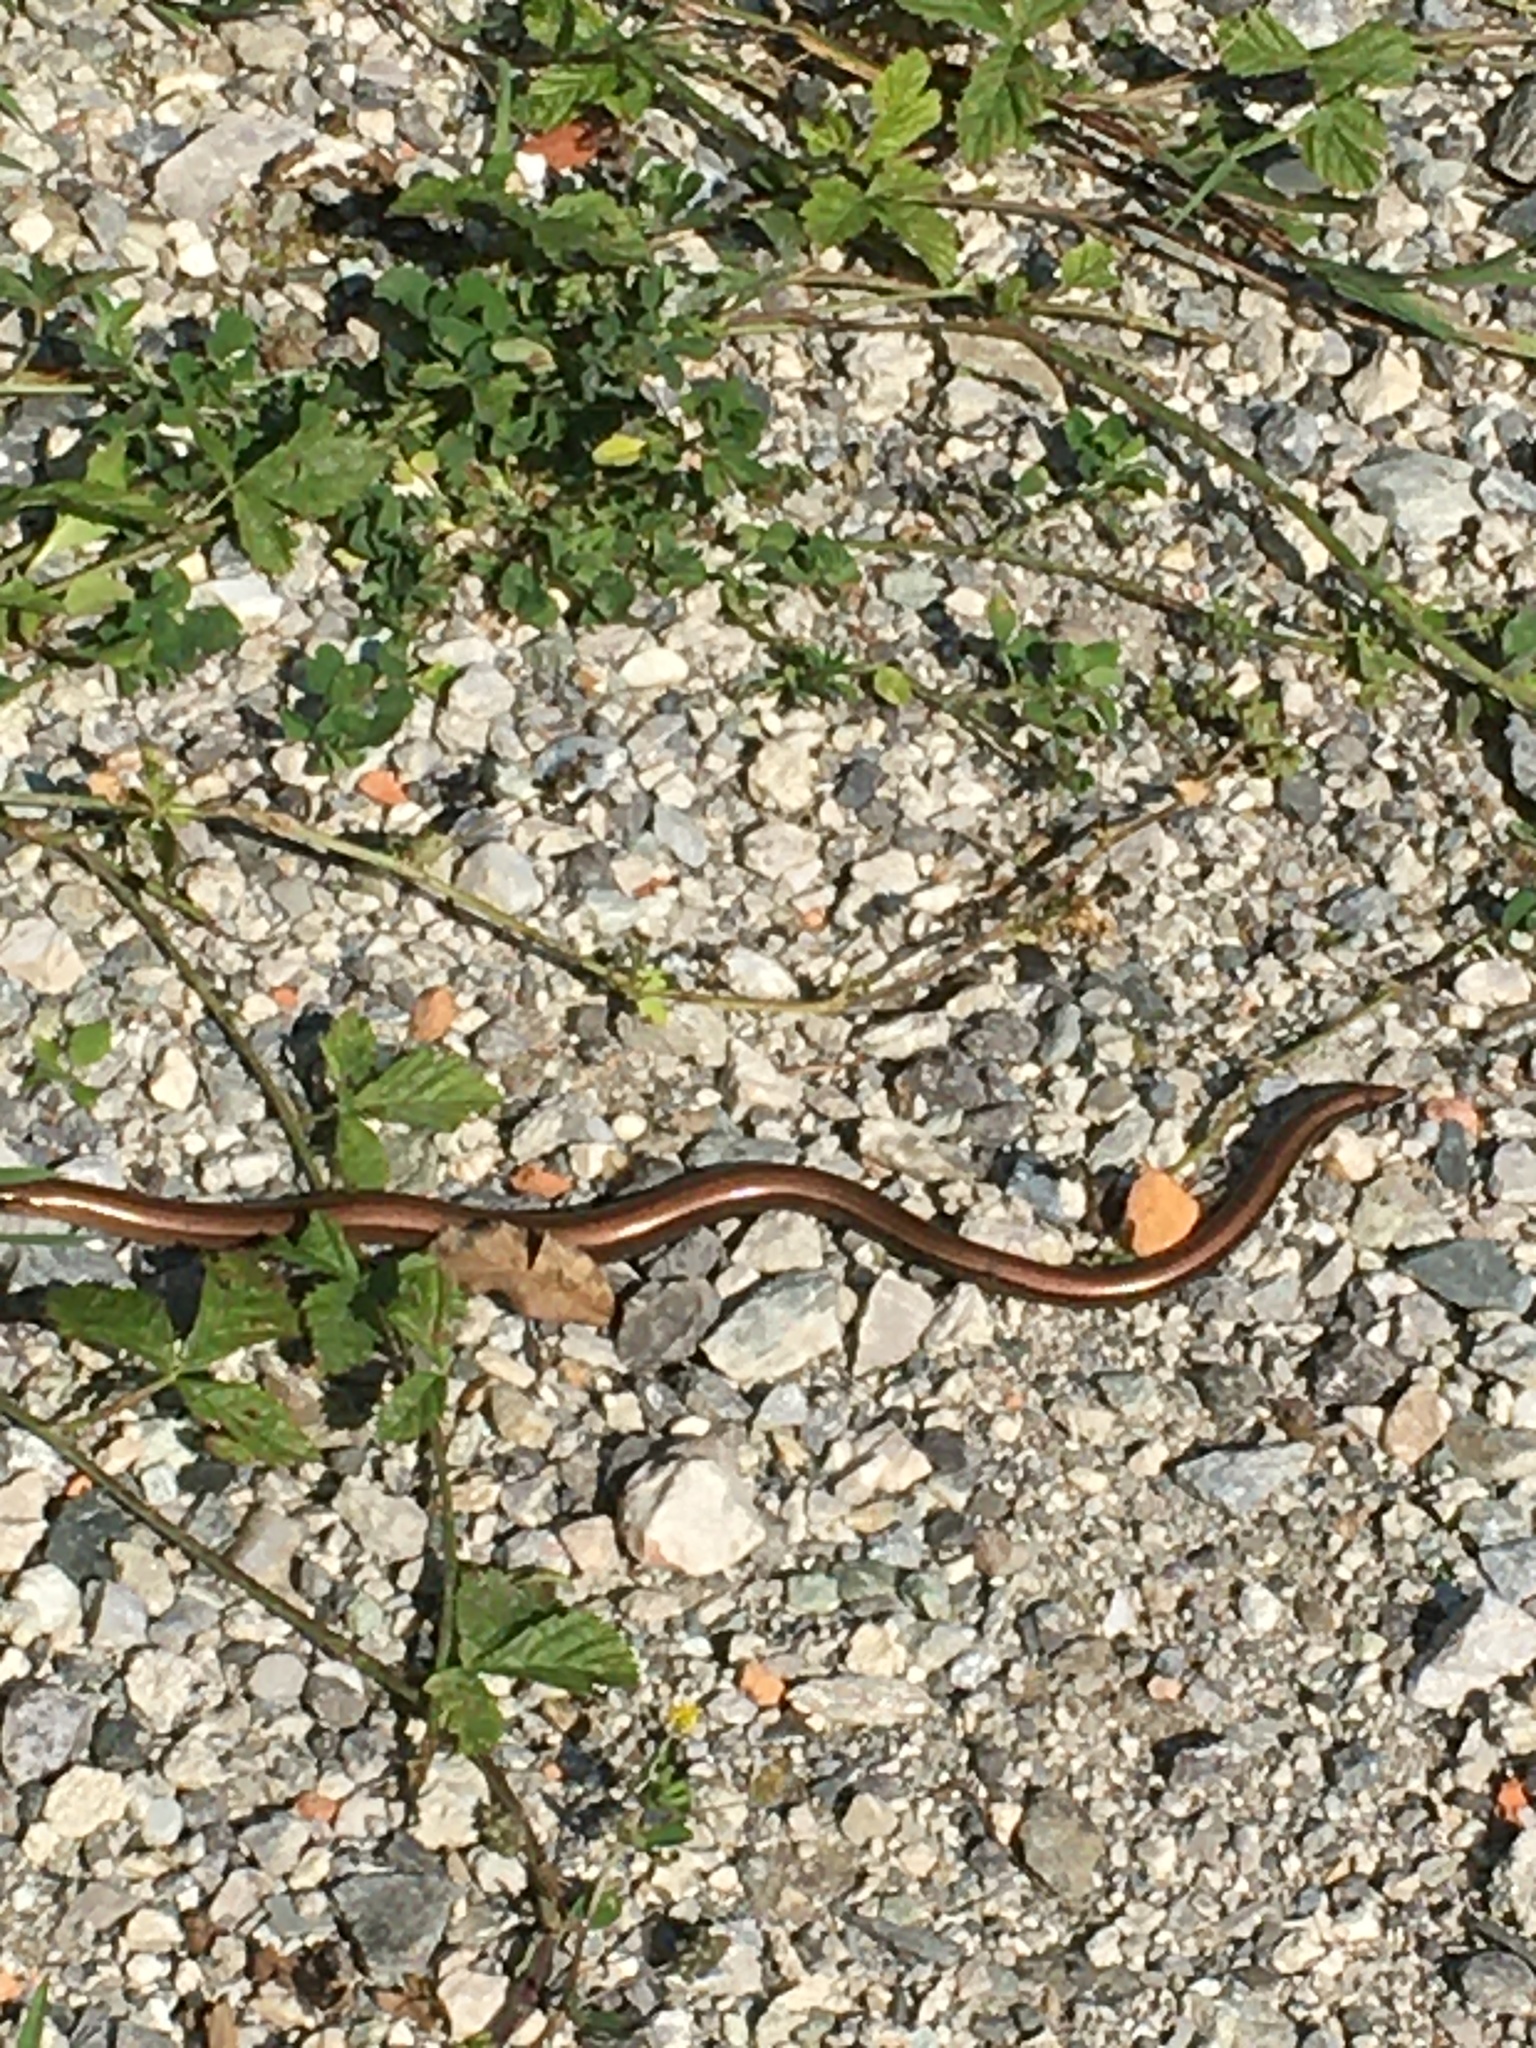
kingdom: Animalia
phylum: Chordata
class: Squamata
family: Anguidae
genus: Anguis
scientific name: Anguis fragilis
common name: Slow worm
